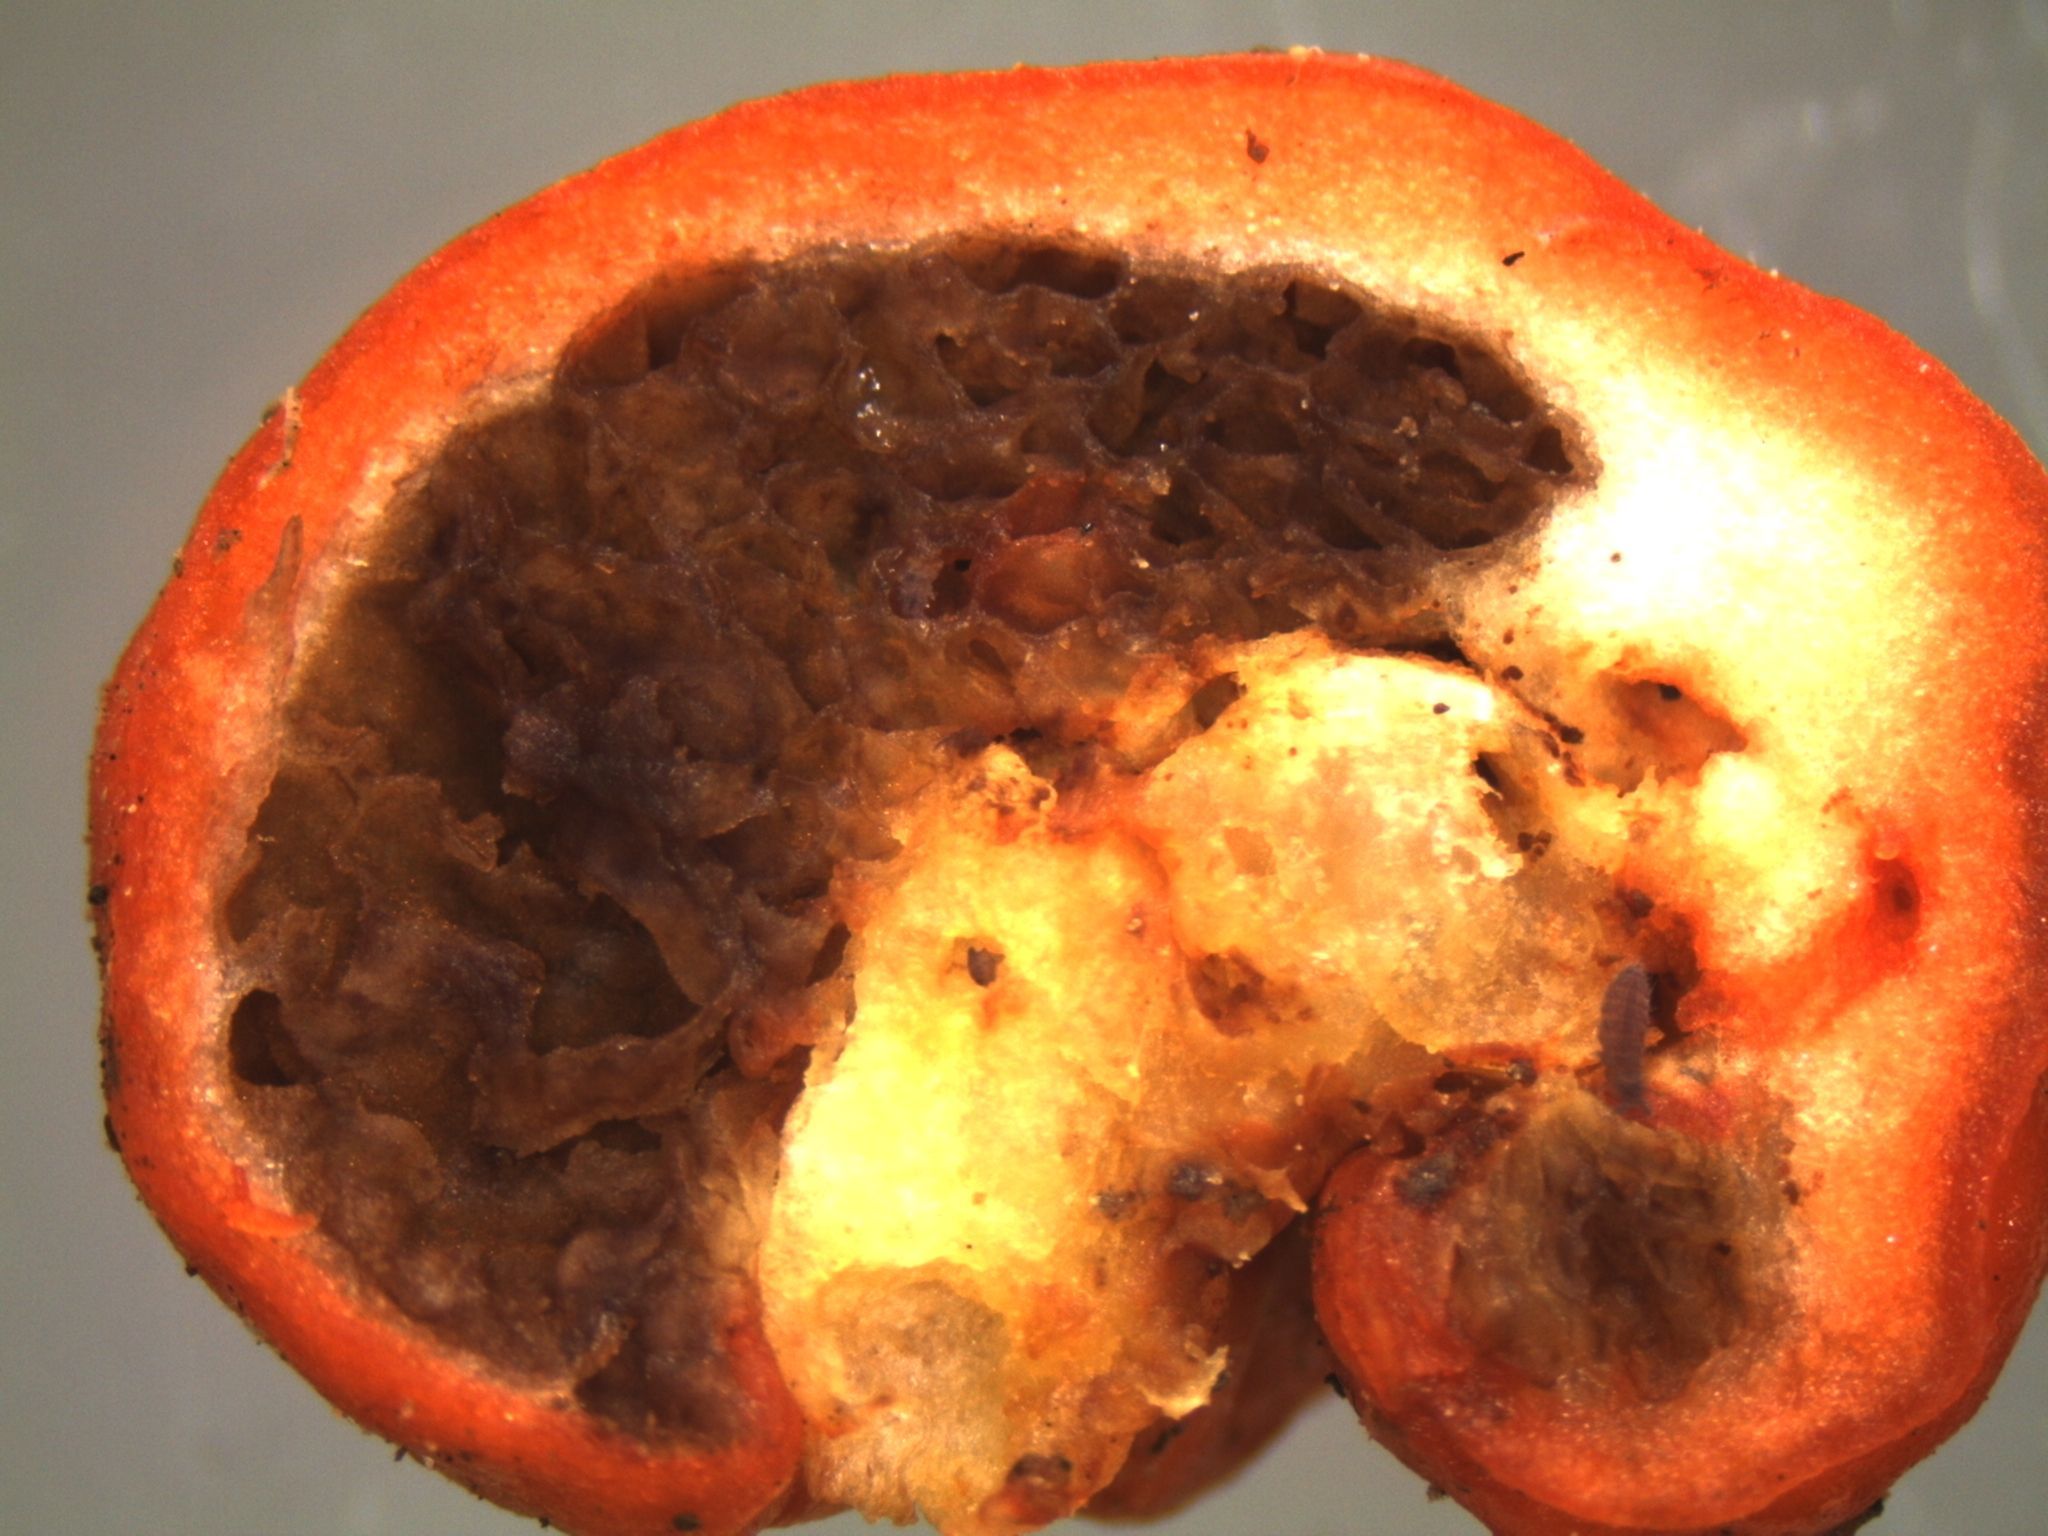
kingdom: Fungi
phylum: Basidiomycota
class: Agaricomycetes
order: Agaricales
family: Strophariaceae
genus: Leratiomyces
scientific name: Leratiomyces erythrocephalus
